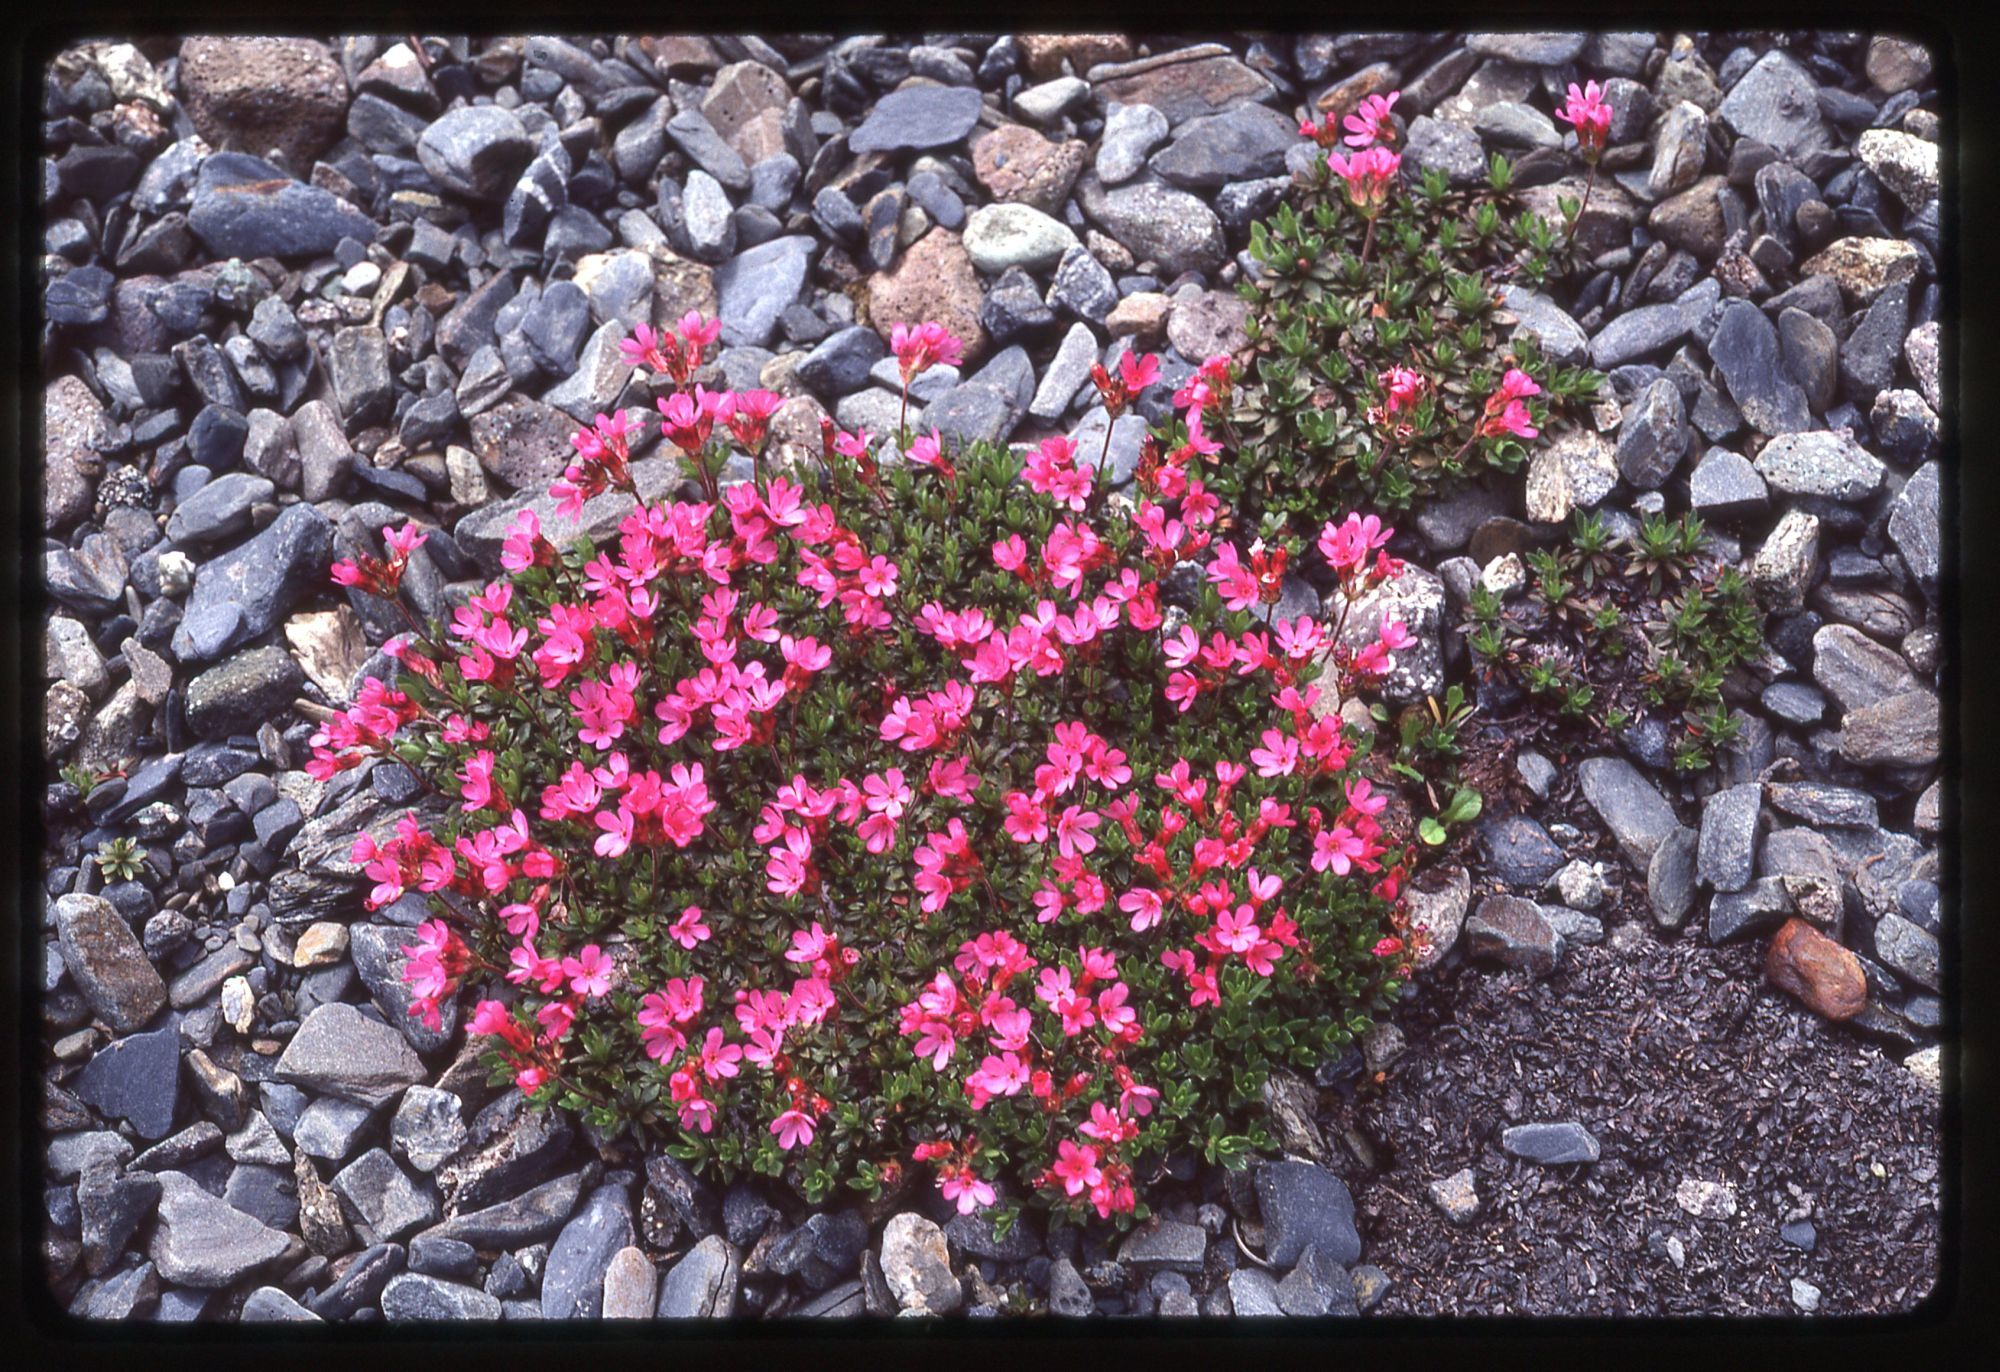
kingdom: Plantae
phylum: Tracheophyta
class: Magnoliopsida
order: Ericales
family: Primulaceae
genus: Androsace
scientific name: Androsace laevigata
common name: Cliff dwarf-primrose
